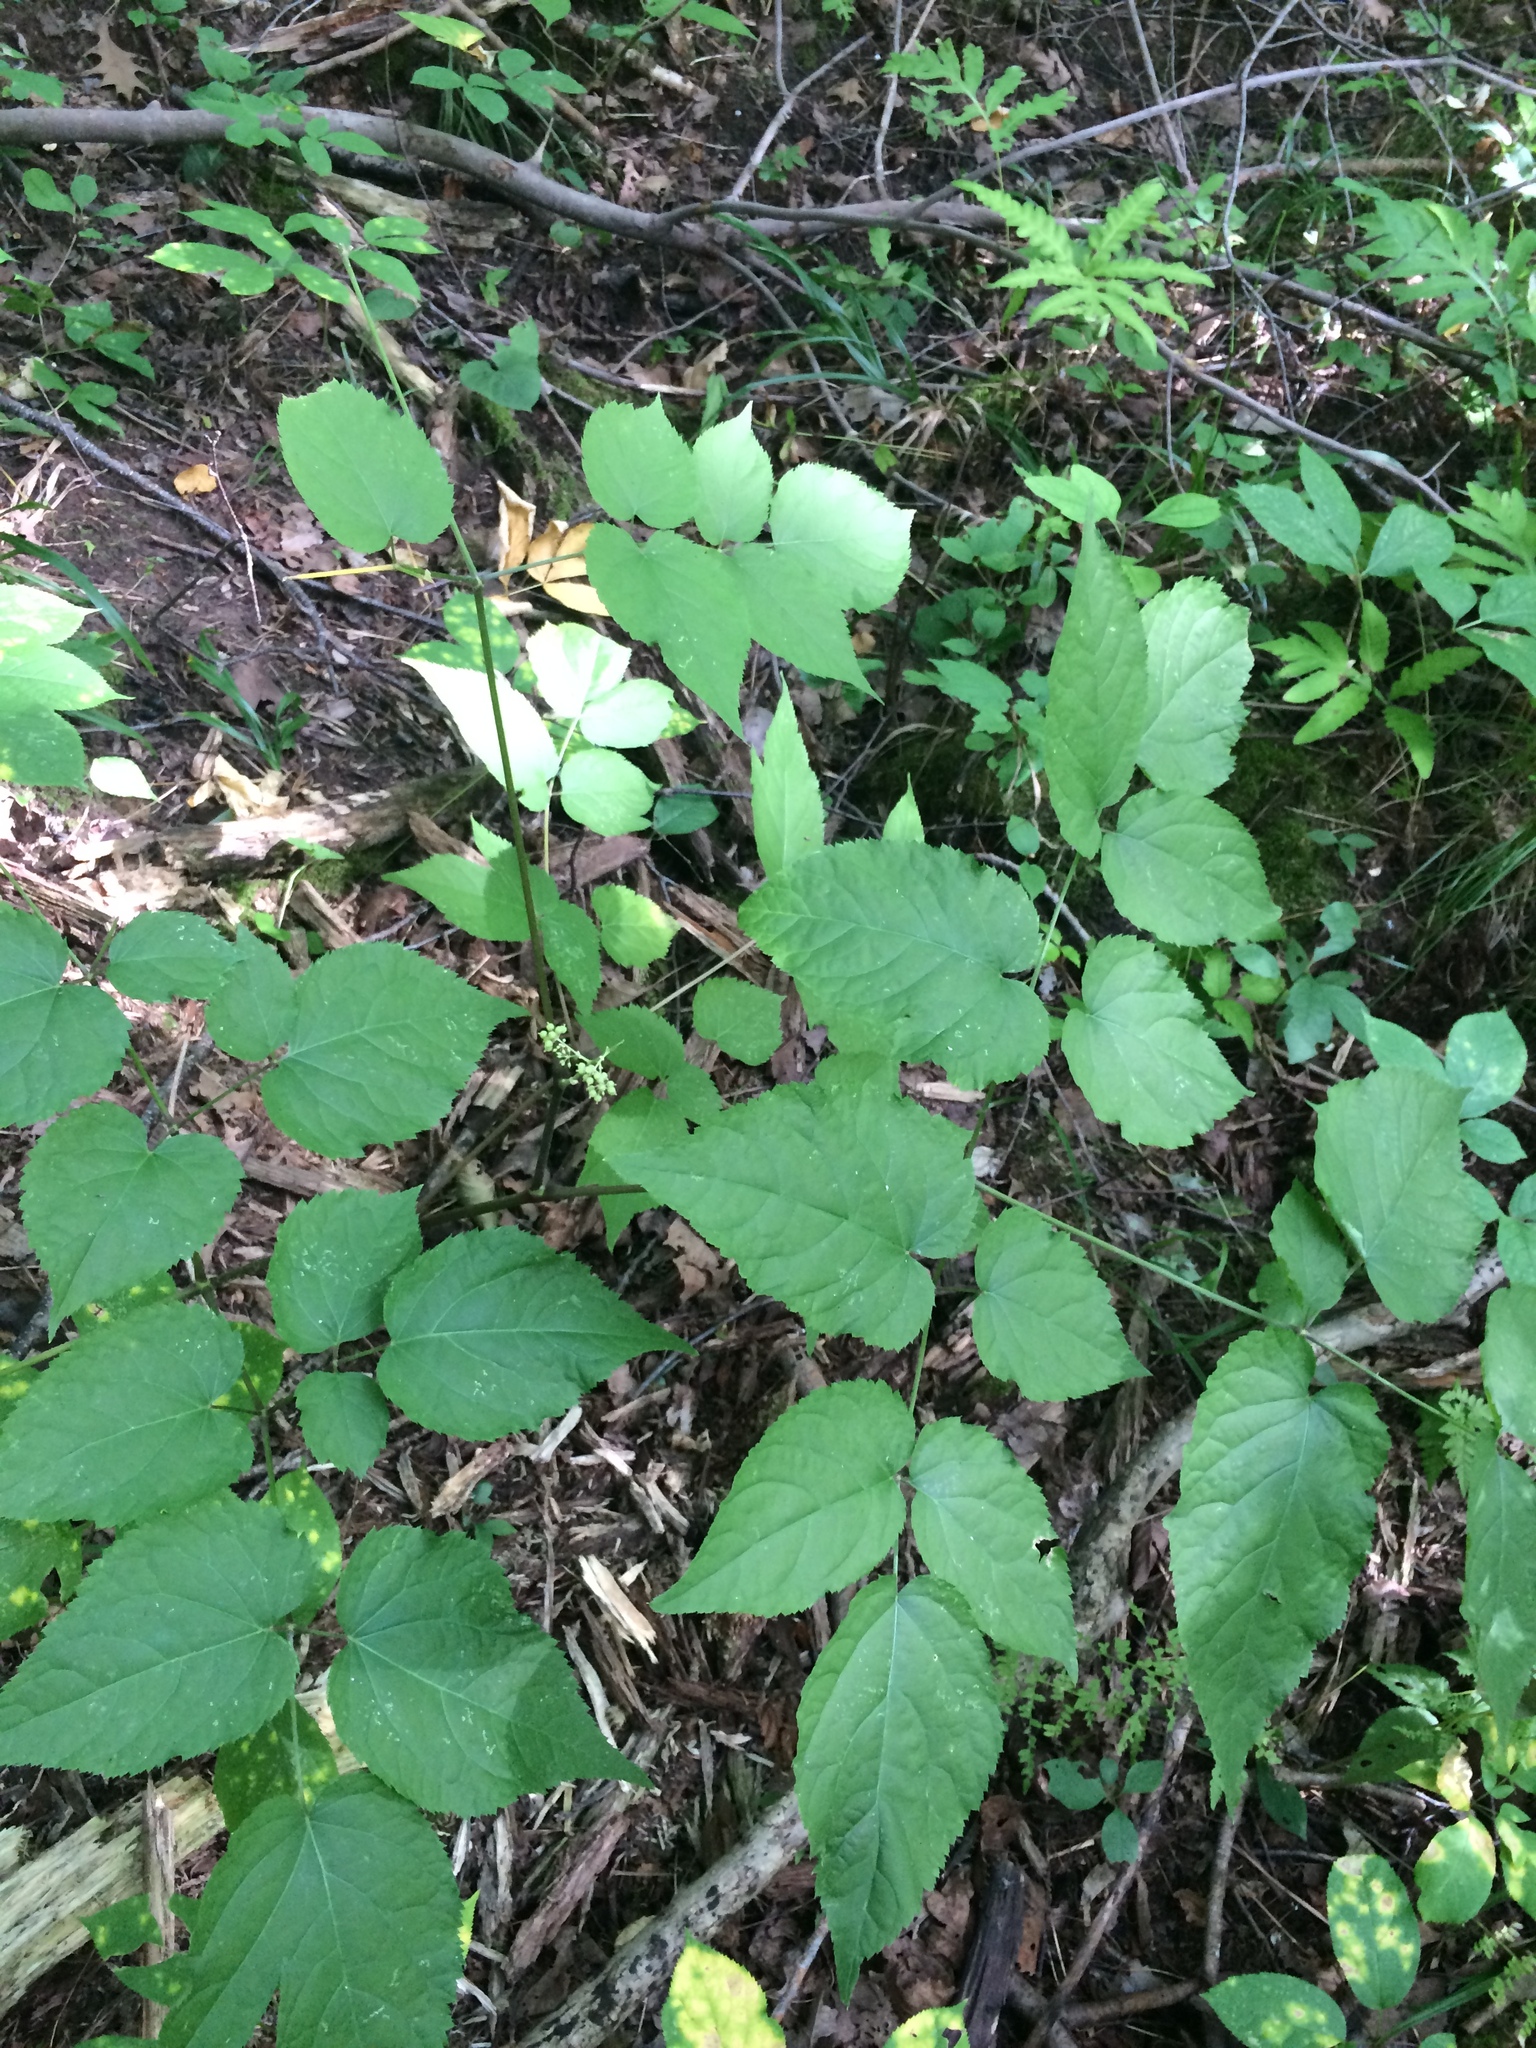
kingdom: Plantae
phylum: Tracheophyta
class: Magnoliopsida
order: Apiales
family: Araliaceae
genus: Aralia
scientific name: Aralia racemosa
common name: American-spikenard
